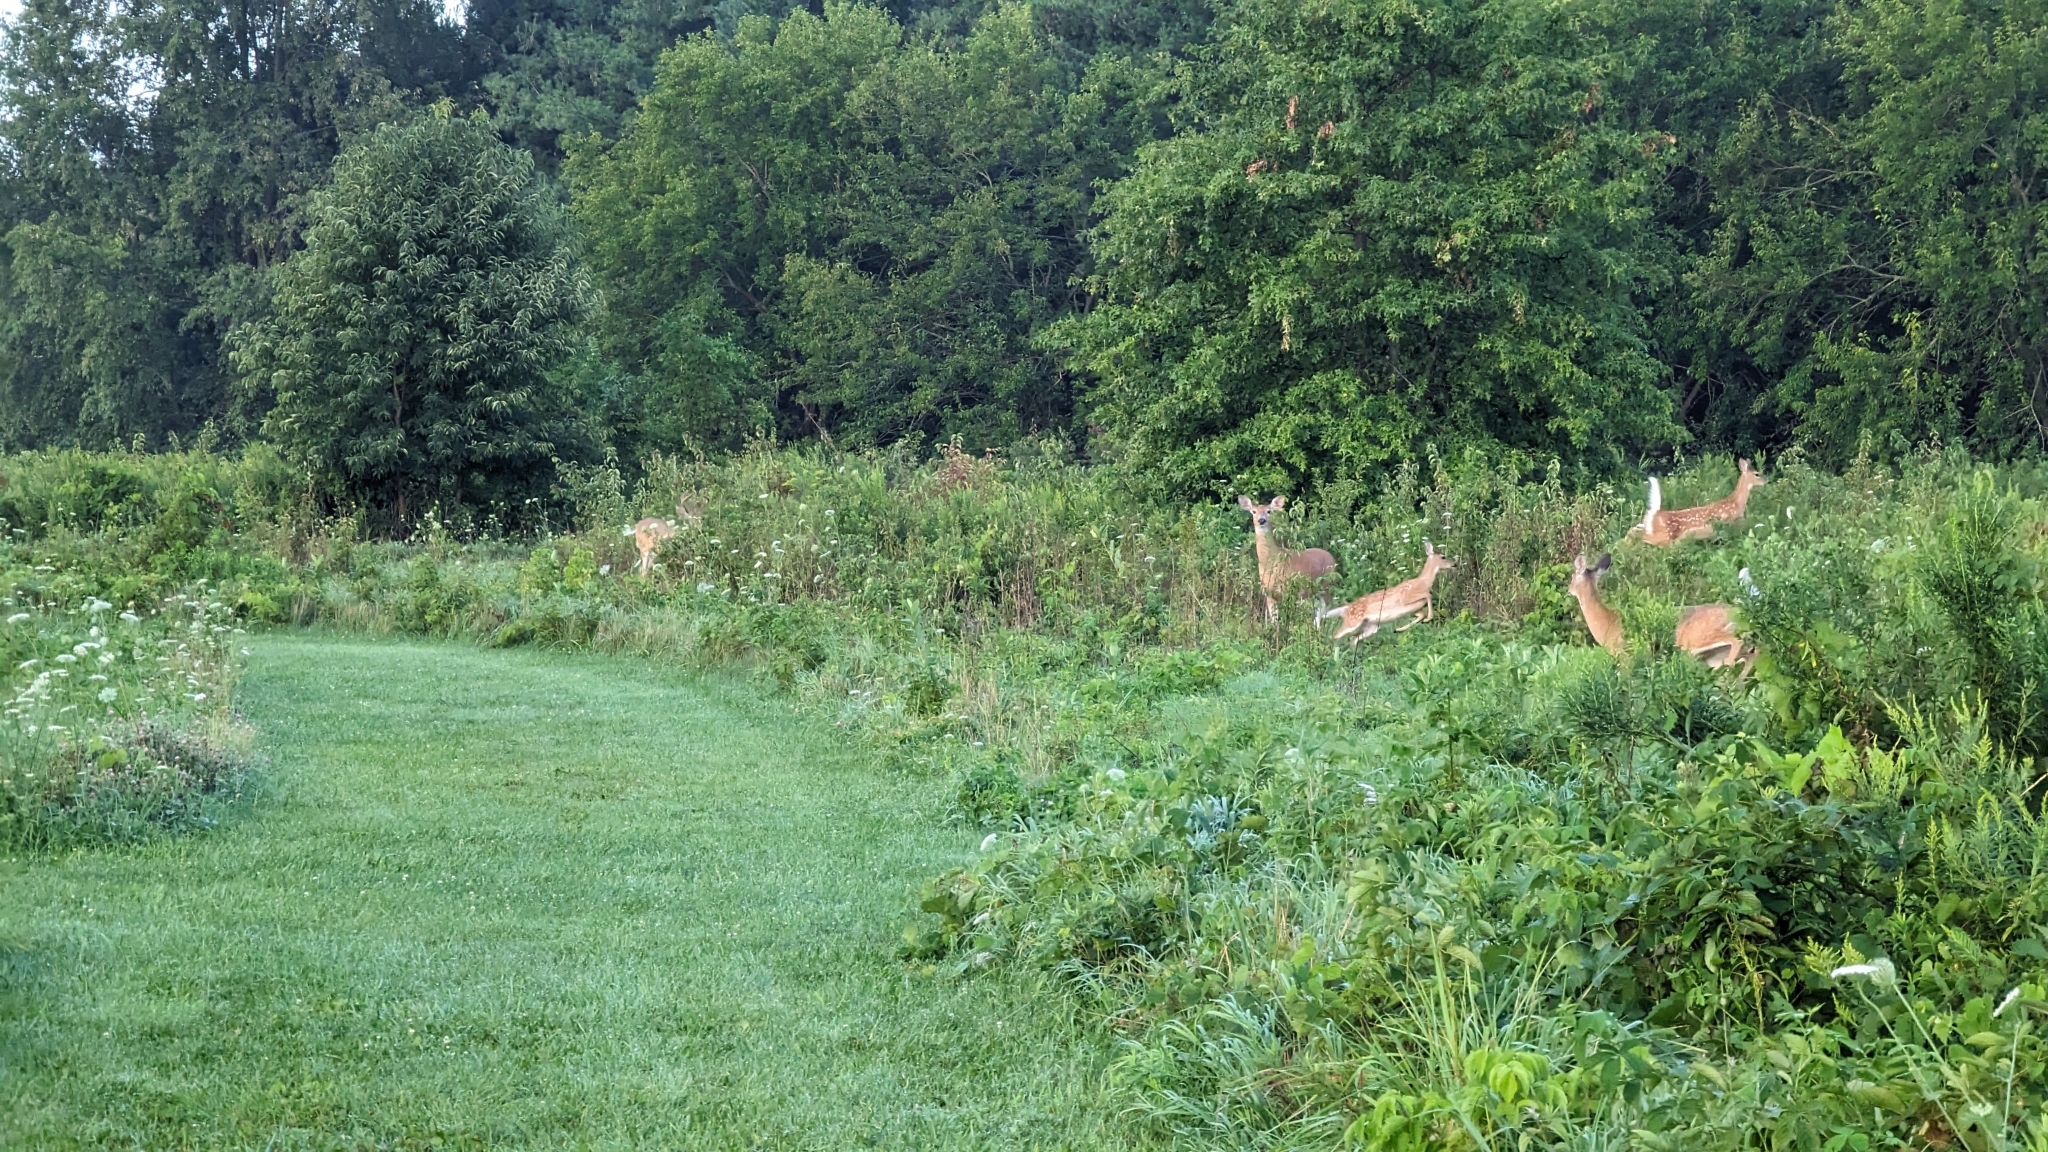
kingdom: Animalia
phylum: Chordata
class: Mammalia
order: Artiodactyla
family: Cervidae
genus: Odocoileus
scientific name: Odocoileus virginianus
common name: White-tailed deer
